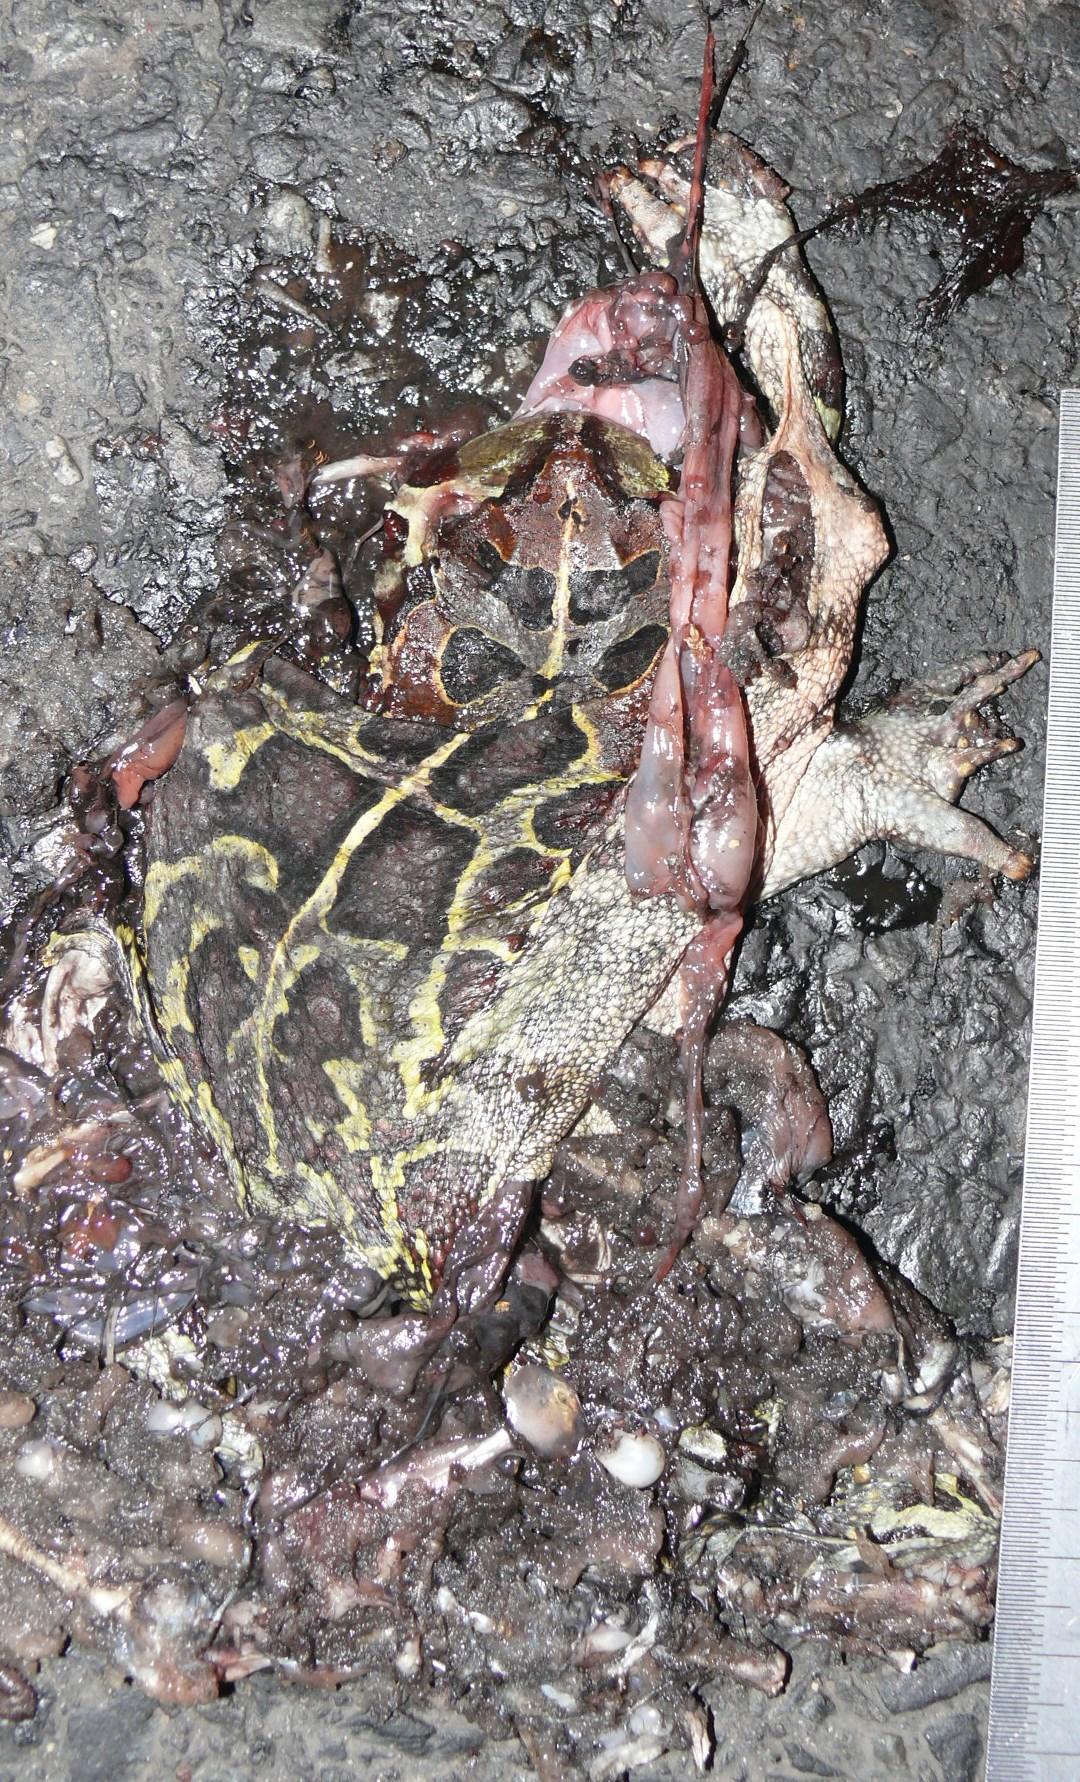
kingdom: Animalia
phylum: Chordata
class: Amphibia
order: Anura
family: Bufonidae
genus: Sclerophrys
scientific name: Sclerophrys pantherina
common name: Panther toad
